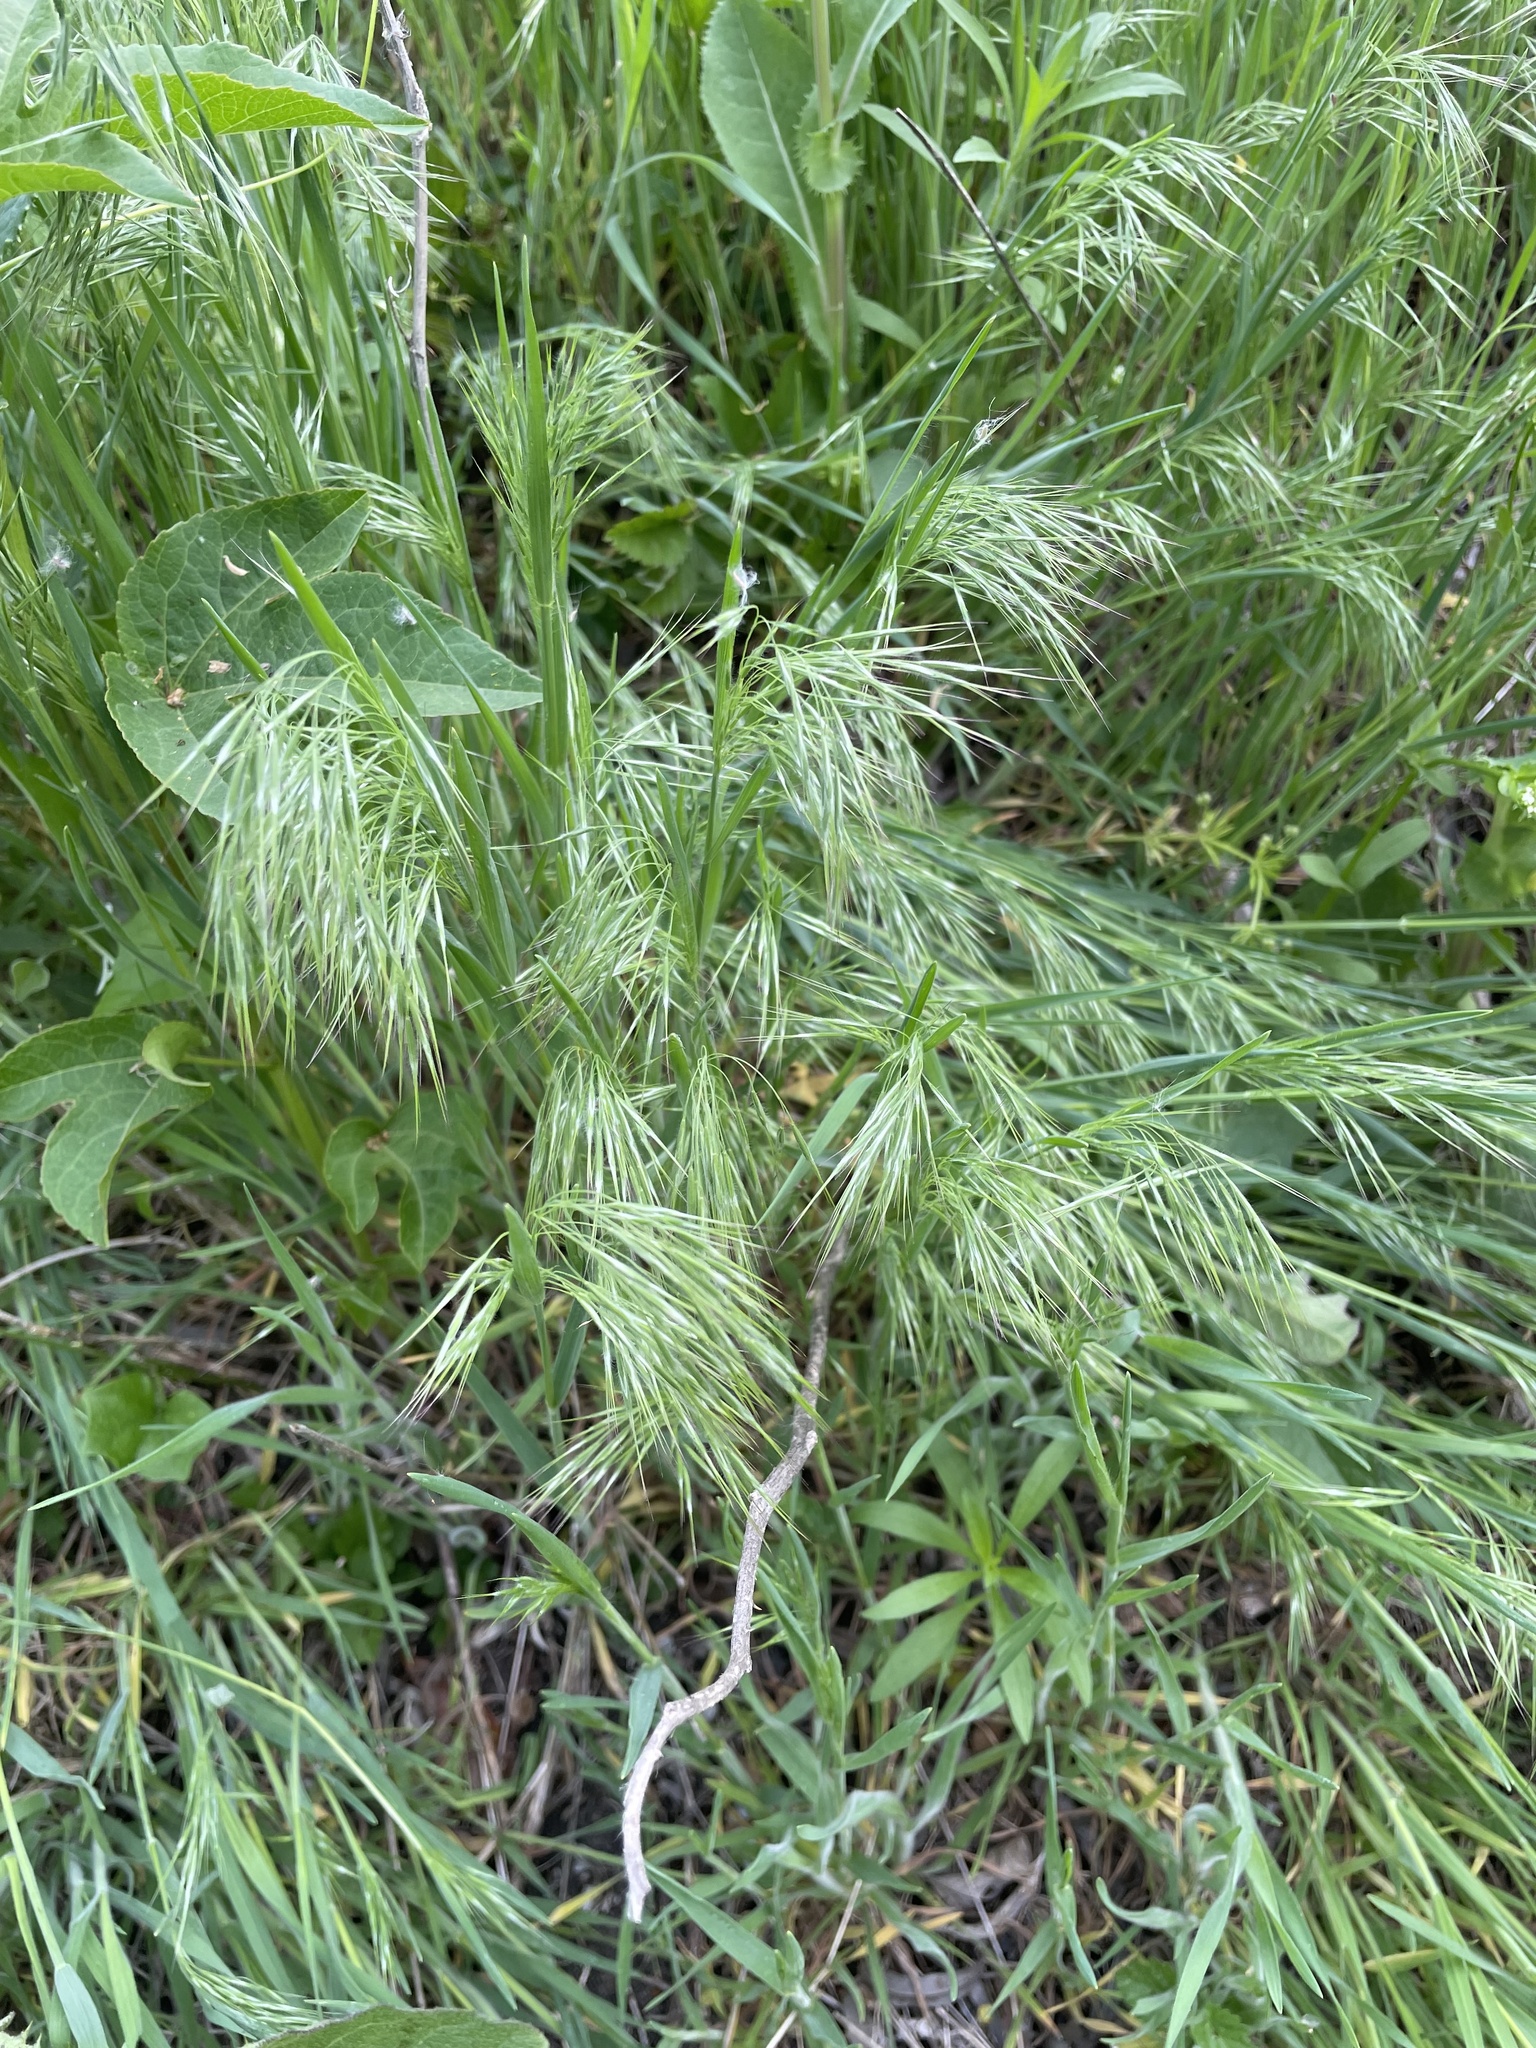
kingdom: Plantae
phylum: Tracheophyta
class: Liliopsida
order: Poales
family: Poaceae
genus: Bromus
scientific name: Bromus tectorum
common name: Cheatgrass
